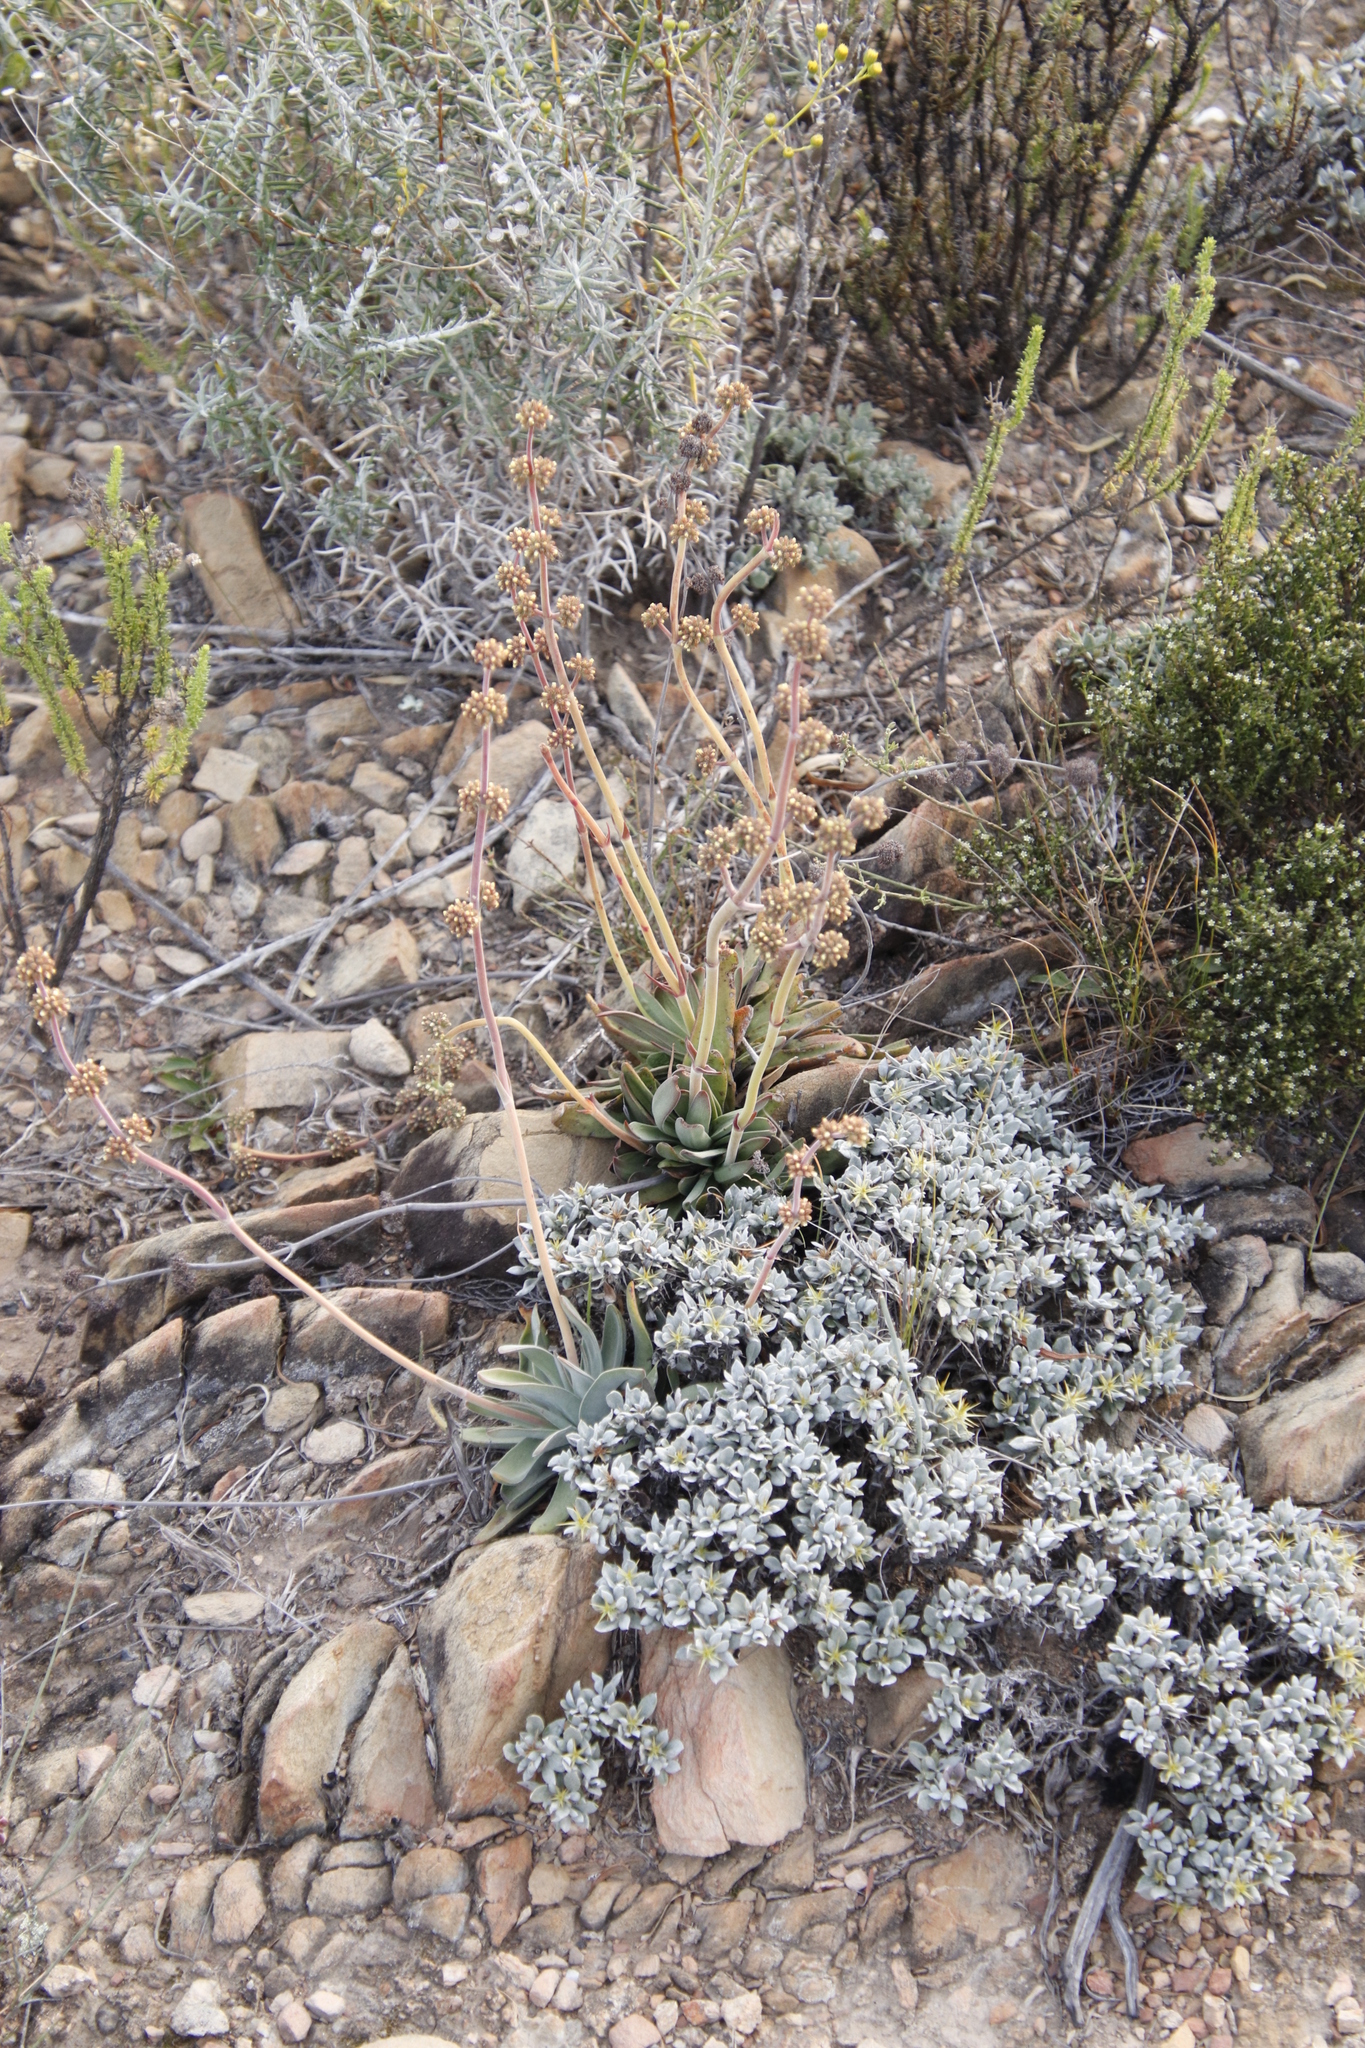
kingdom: Plantae
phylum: Tracheophyta
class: Magnoliopsida
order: Saxifragales
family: Crassulaceae
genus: Crassula
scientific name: Crassula nudicaulis
